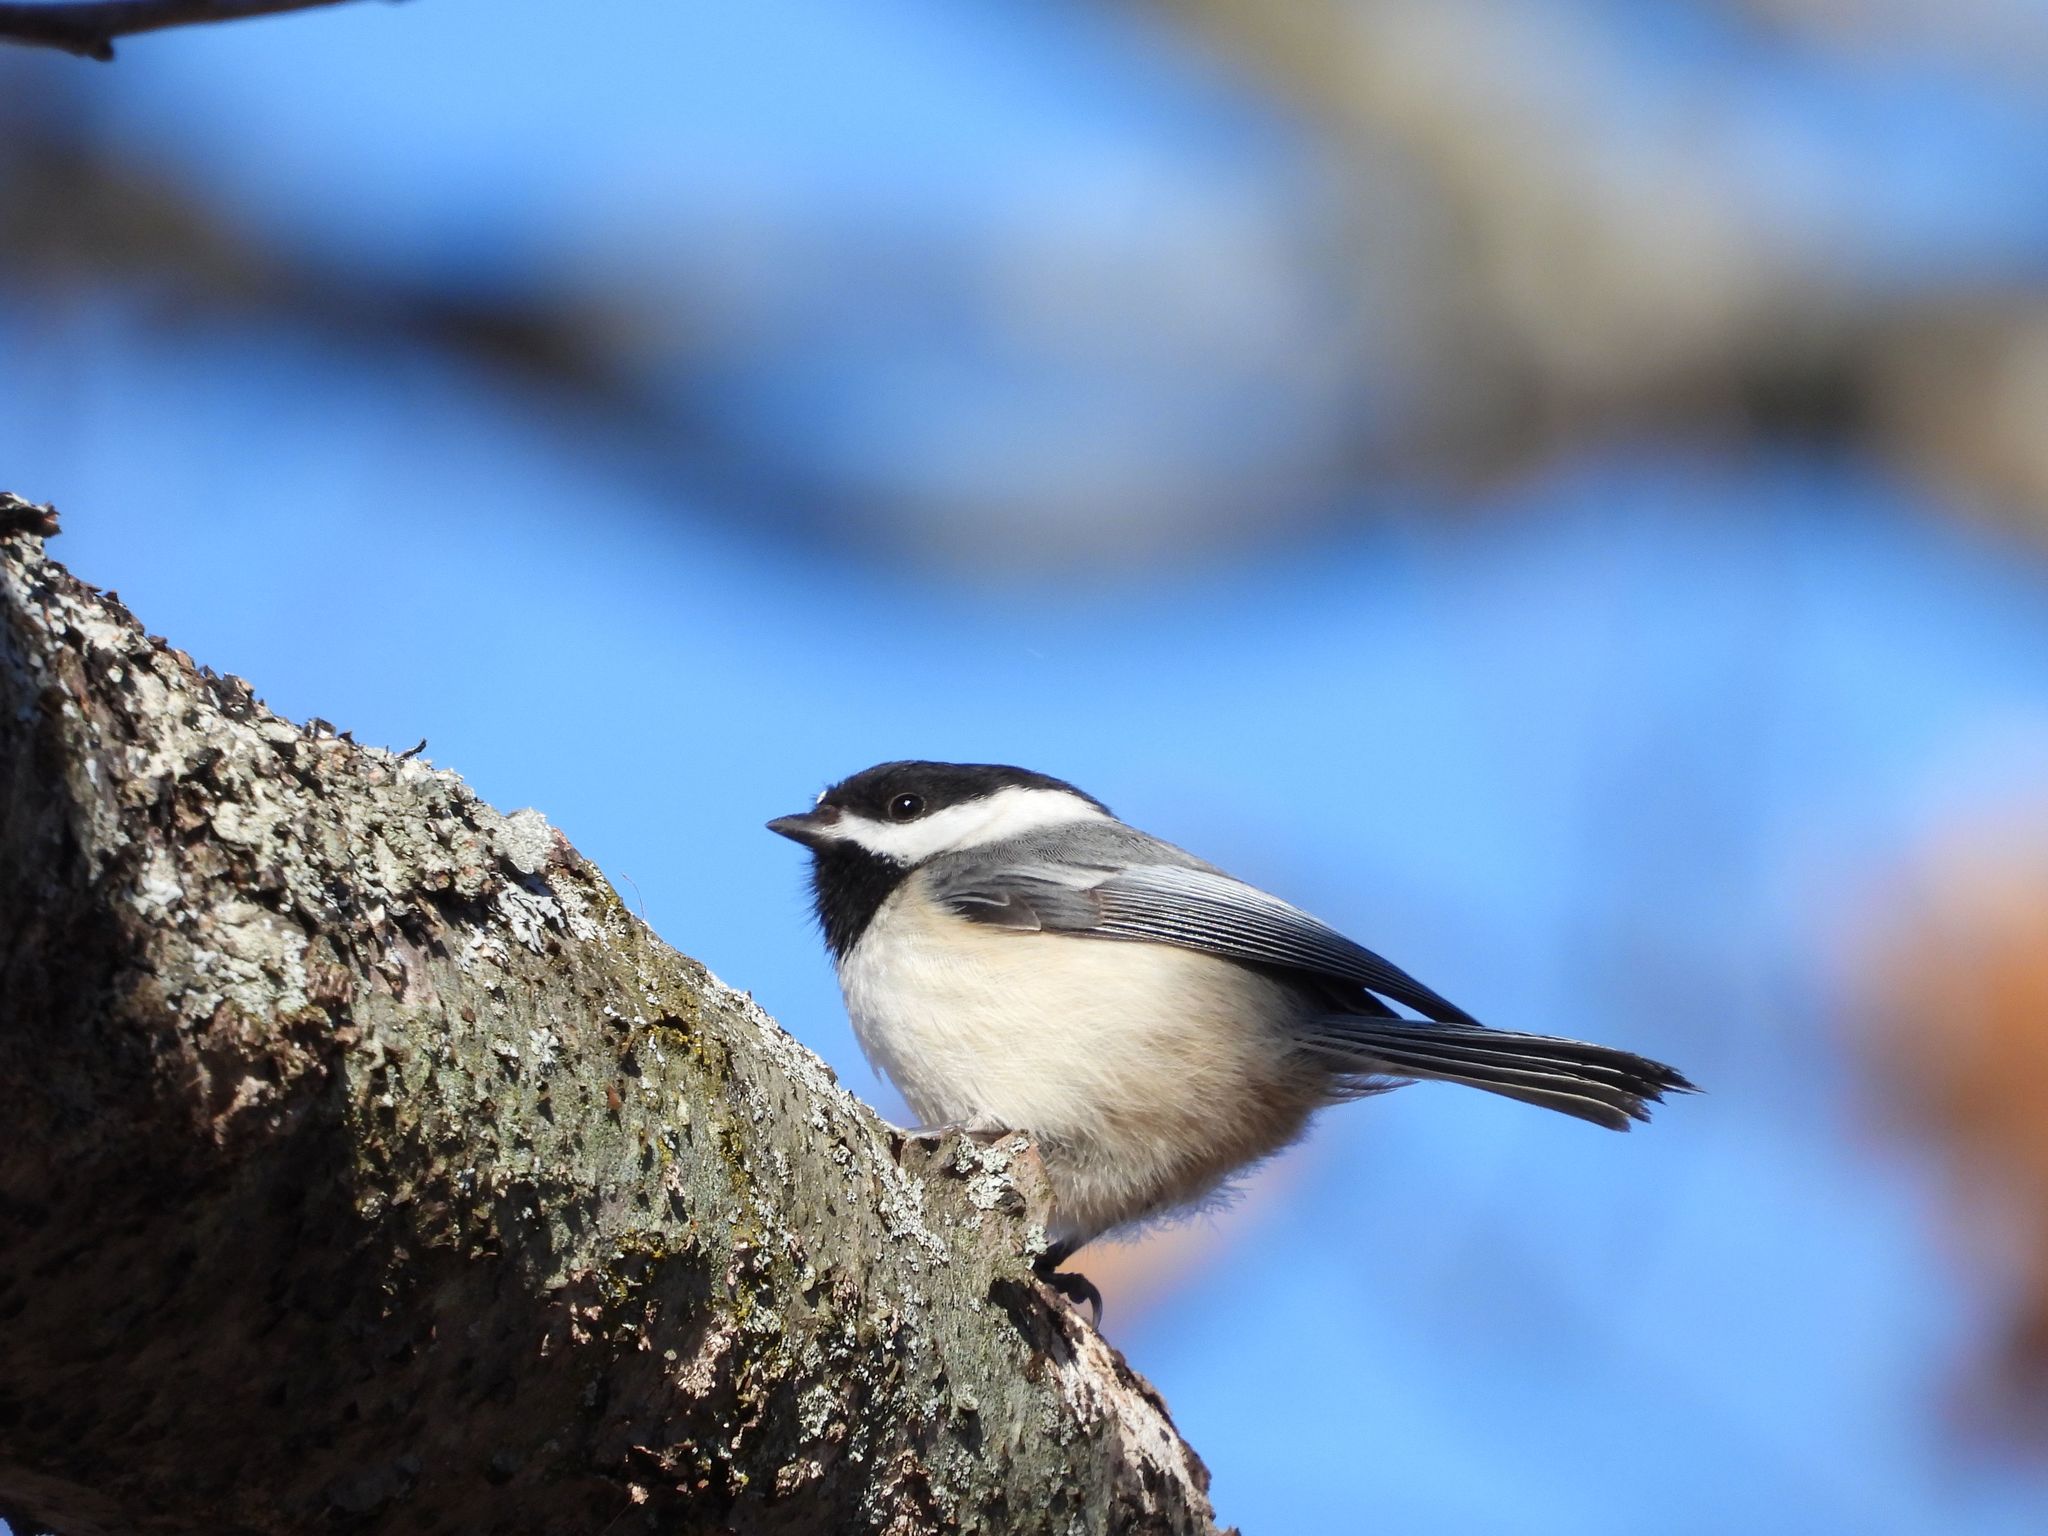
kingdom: Animalia
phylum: Chordata
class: Aves
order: Passeriformes
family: Paridae
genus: Poecile
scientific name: Poecile atricapillus
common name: Black-capped chickadee
